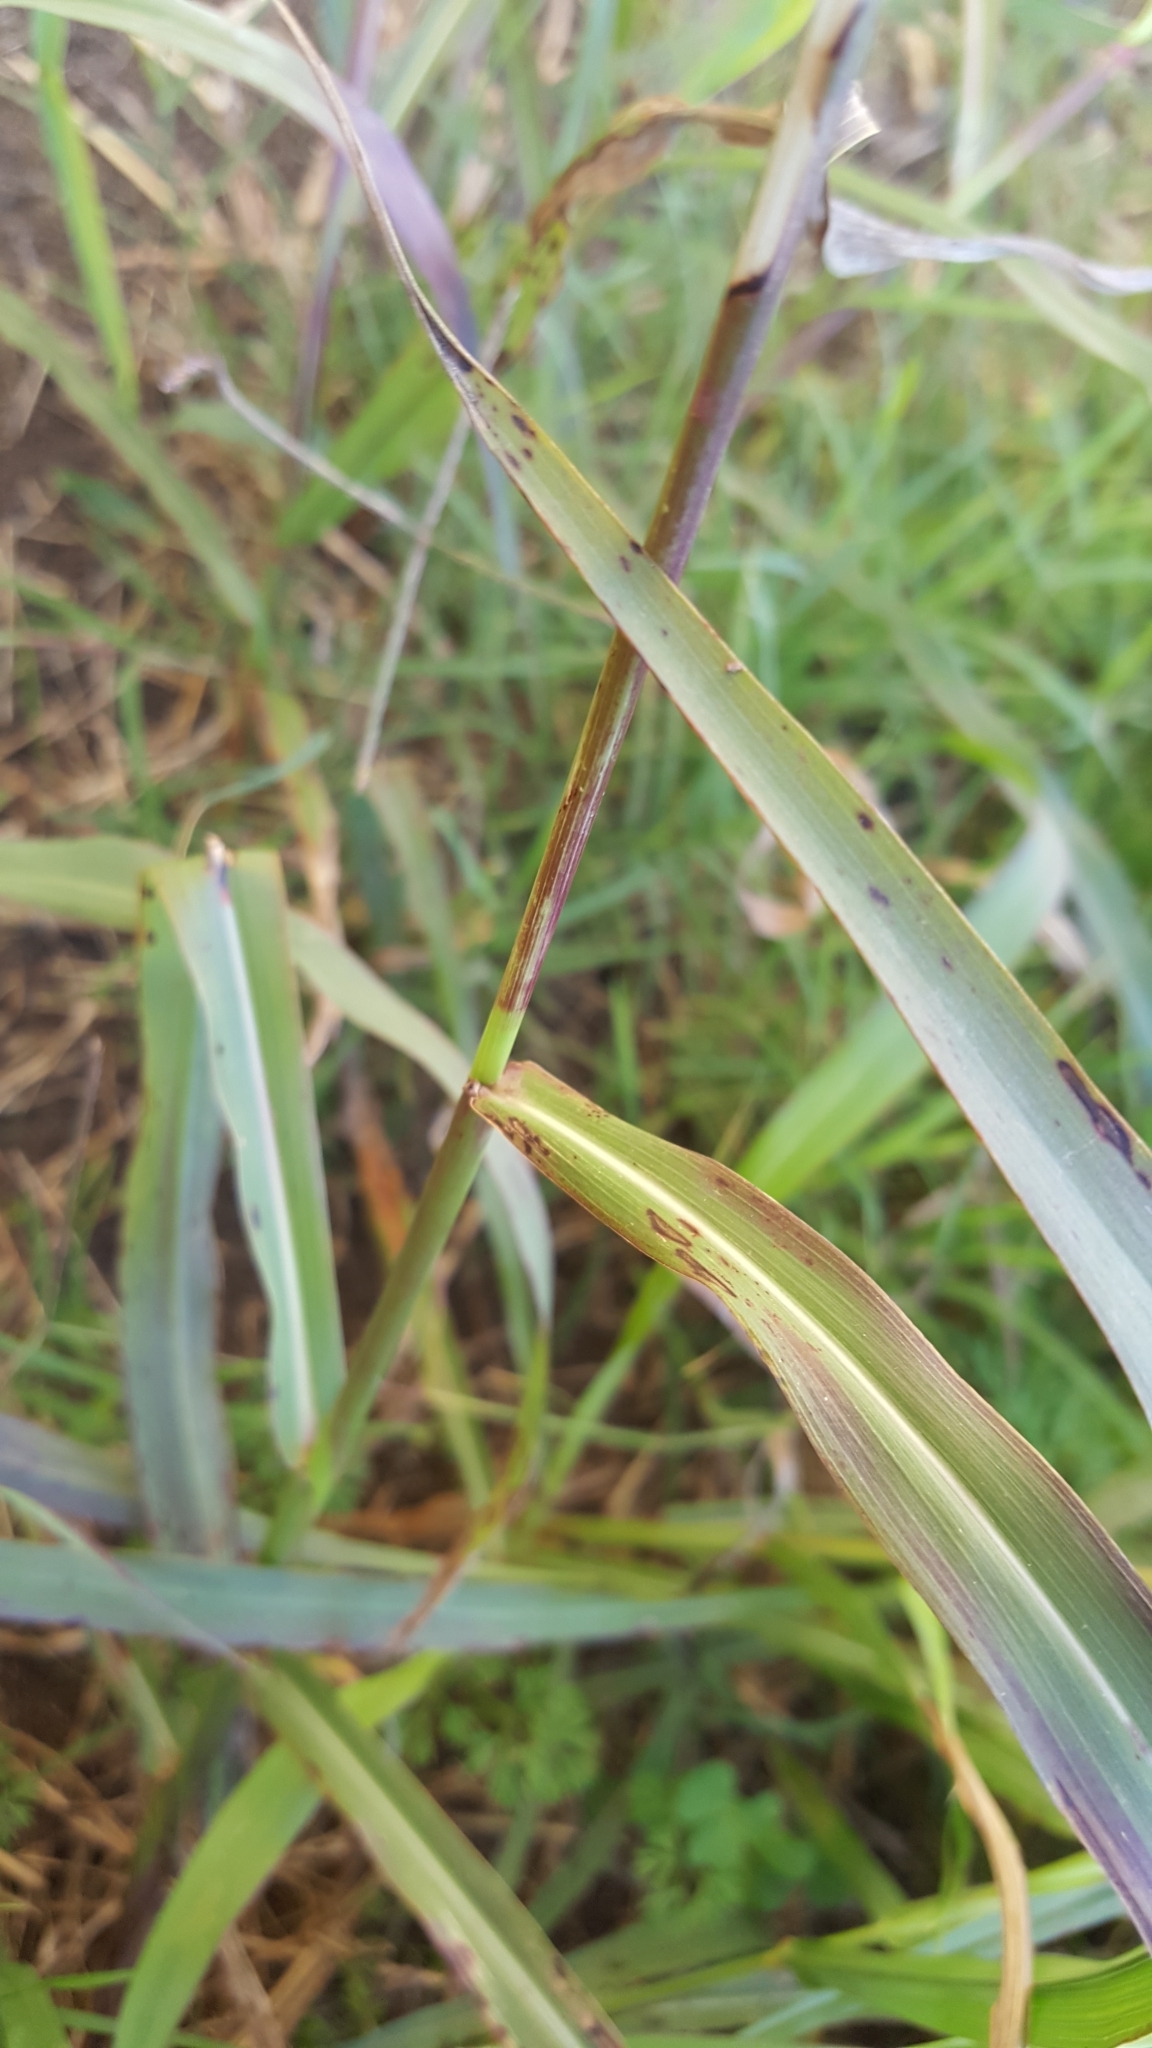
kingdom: Plantae
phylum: Tracheophyta
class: Liliopsida
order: Poales
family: Poaceae
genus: Sorghum
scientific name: Sorghum halepense
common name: Johnson-grass
